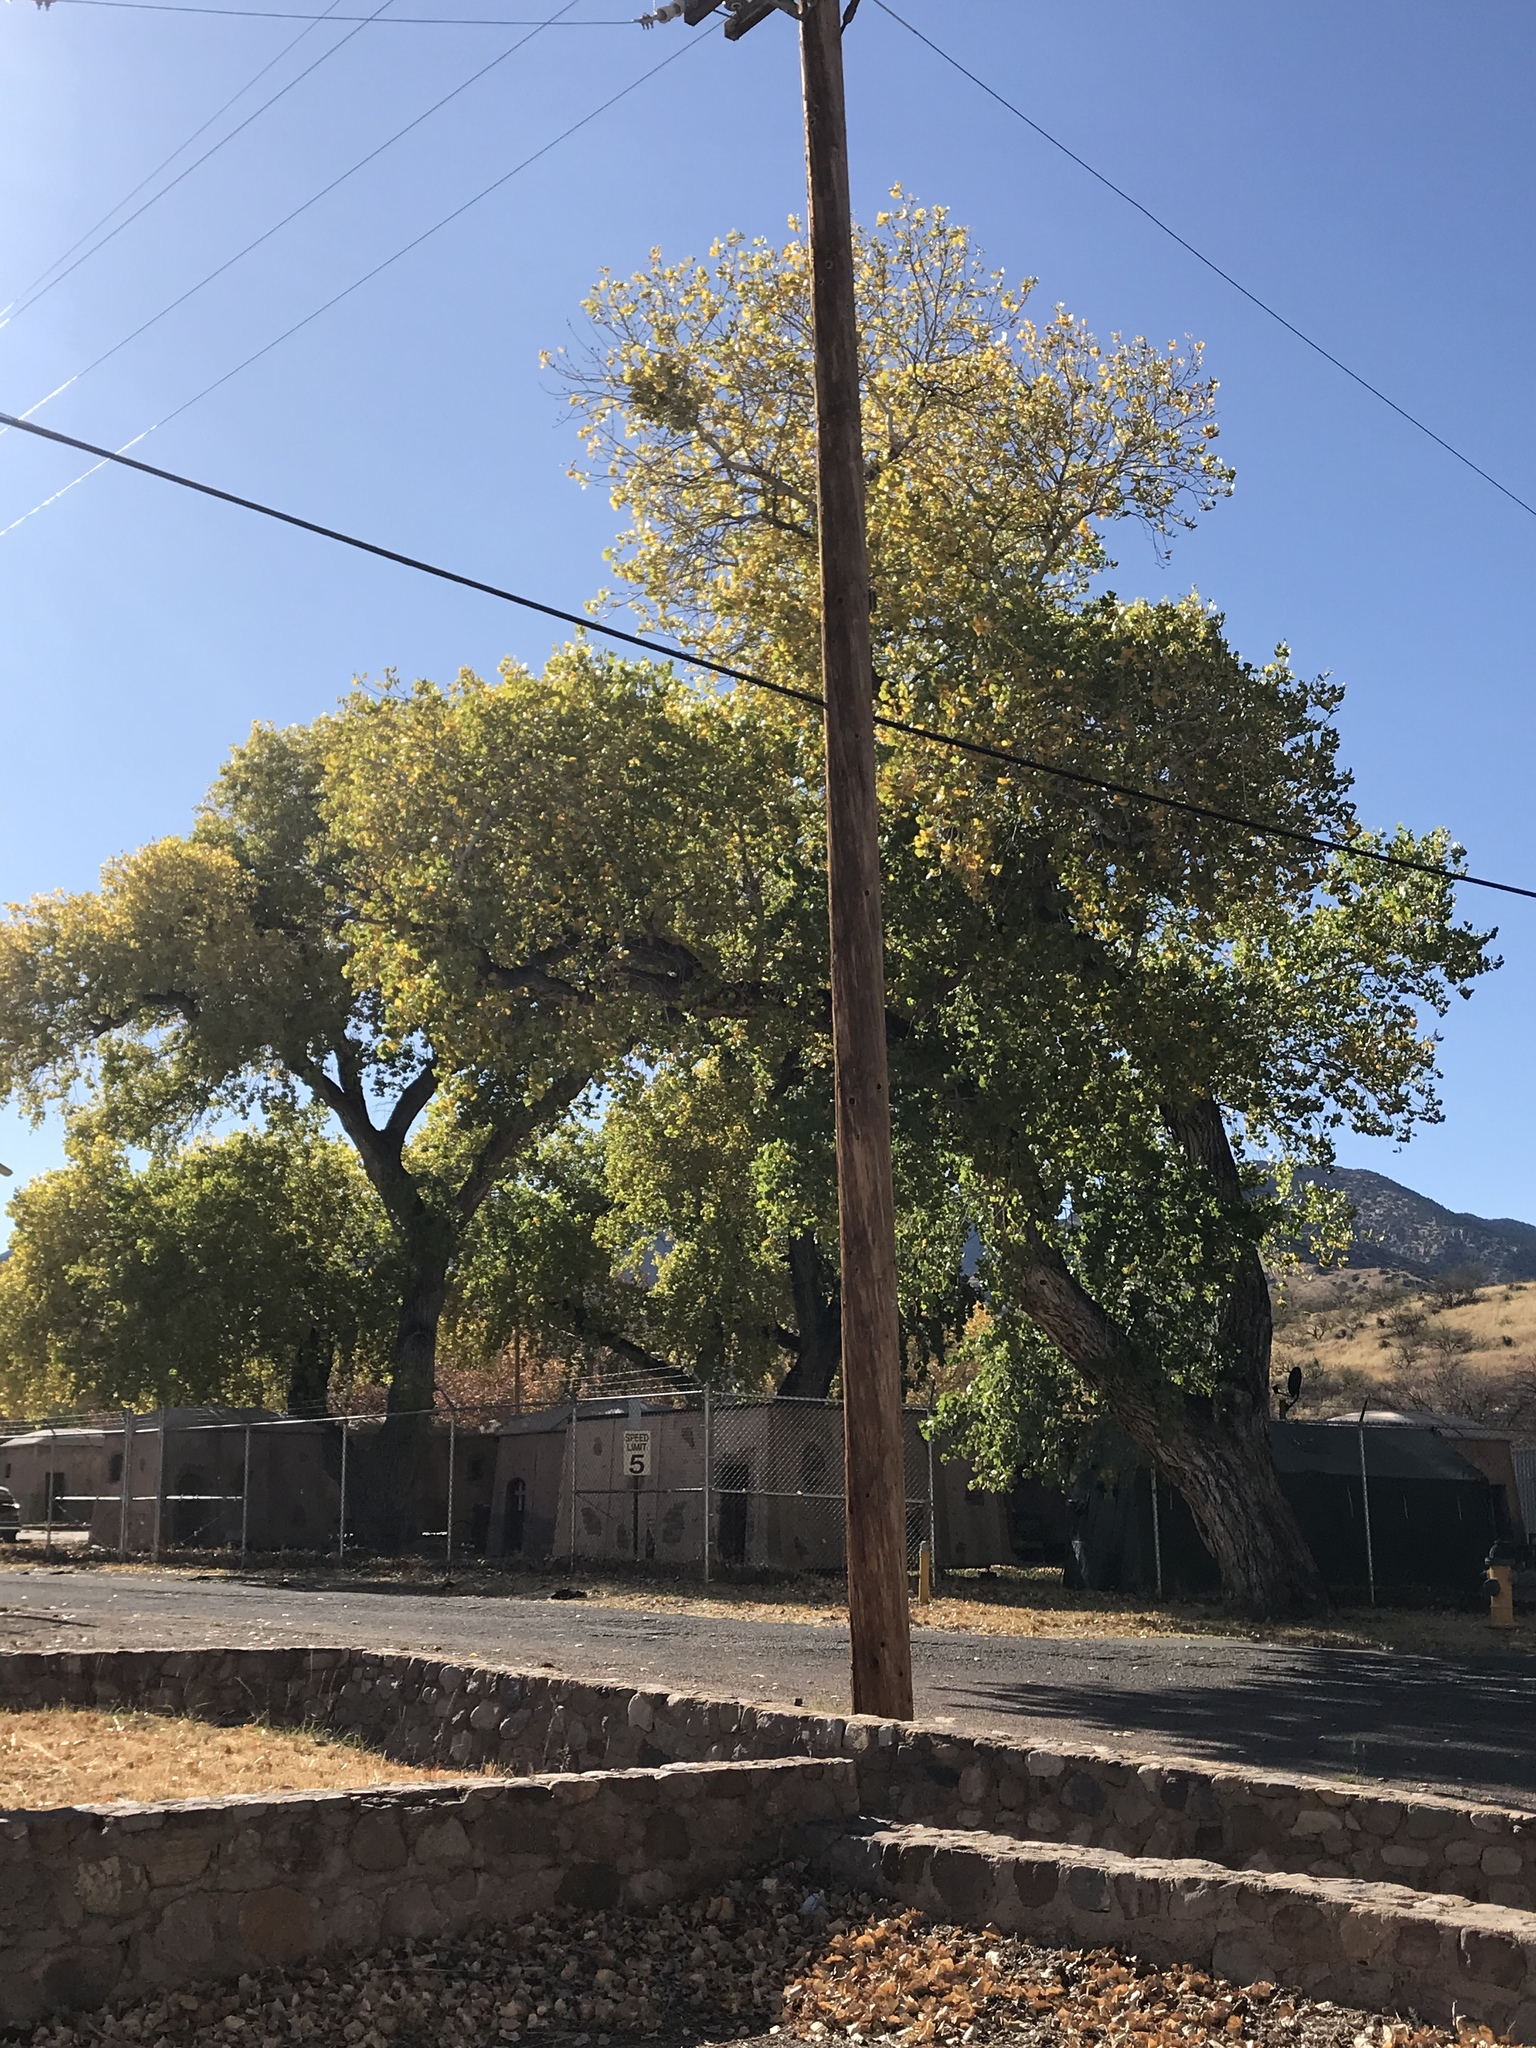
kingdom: Plantae
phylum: Tracheophyta
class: Magnoliopsida
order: Malpighiales
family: Salicaceae
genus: Populus
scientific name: Populus fremontii
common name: Fremont's cottonwood
